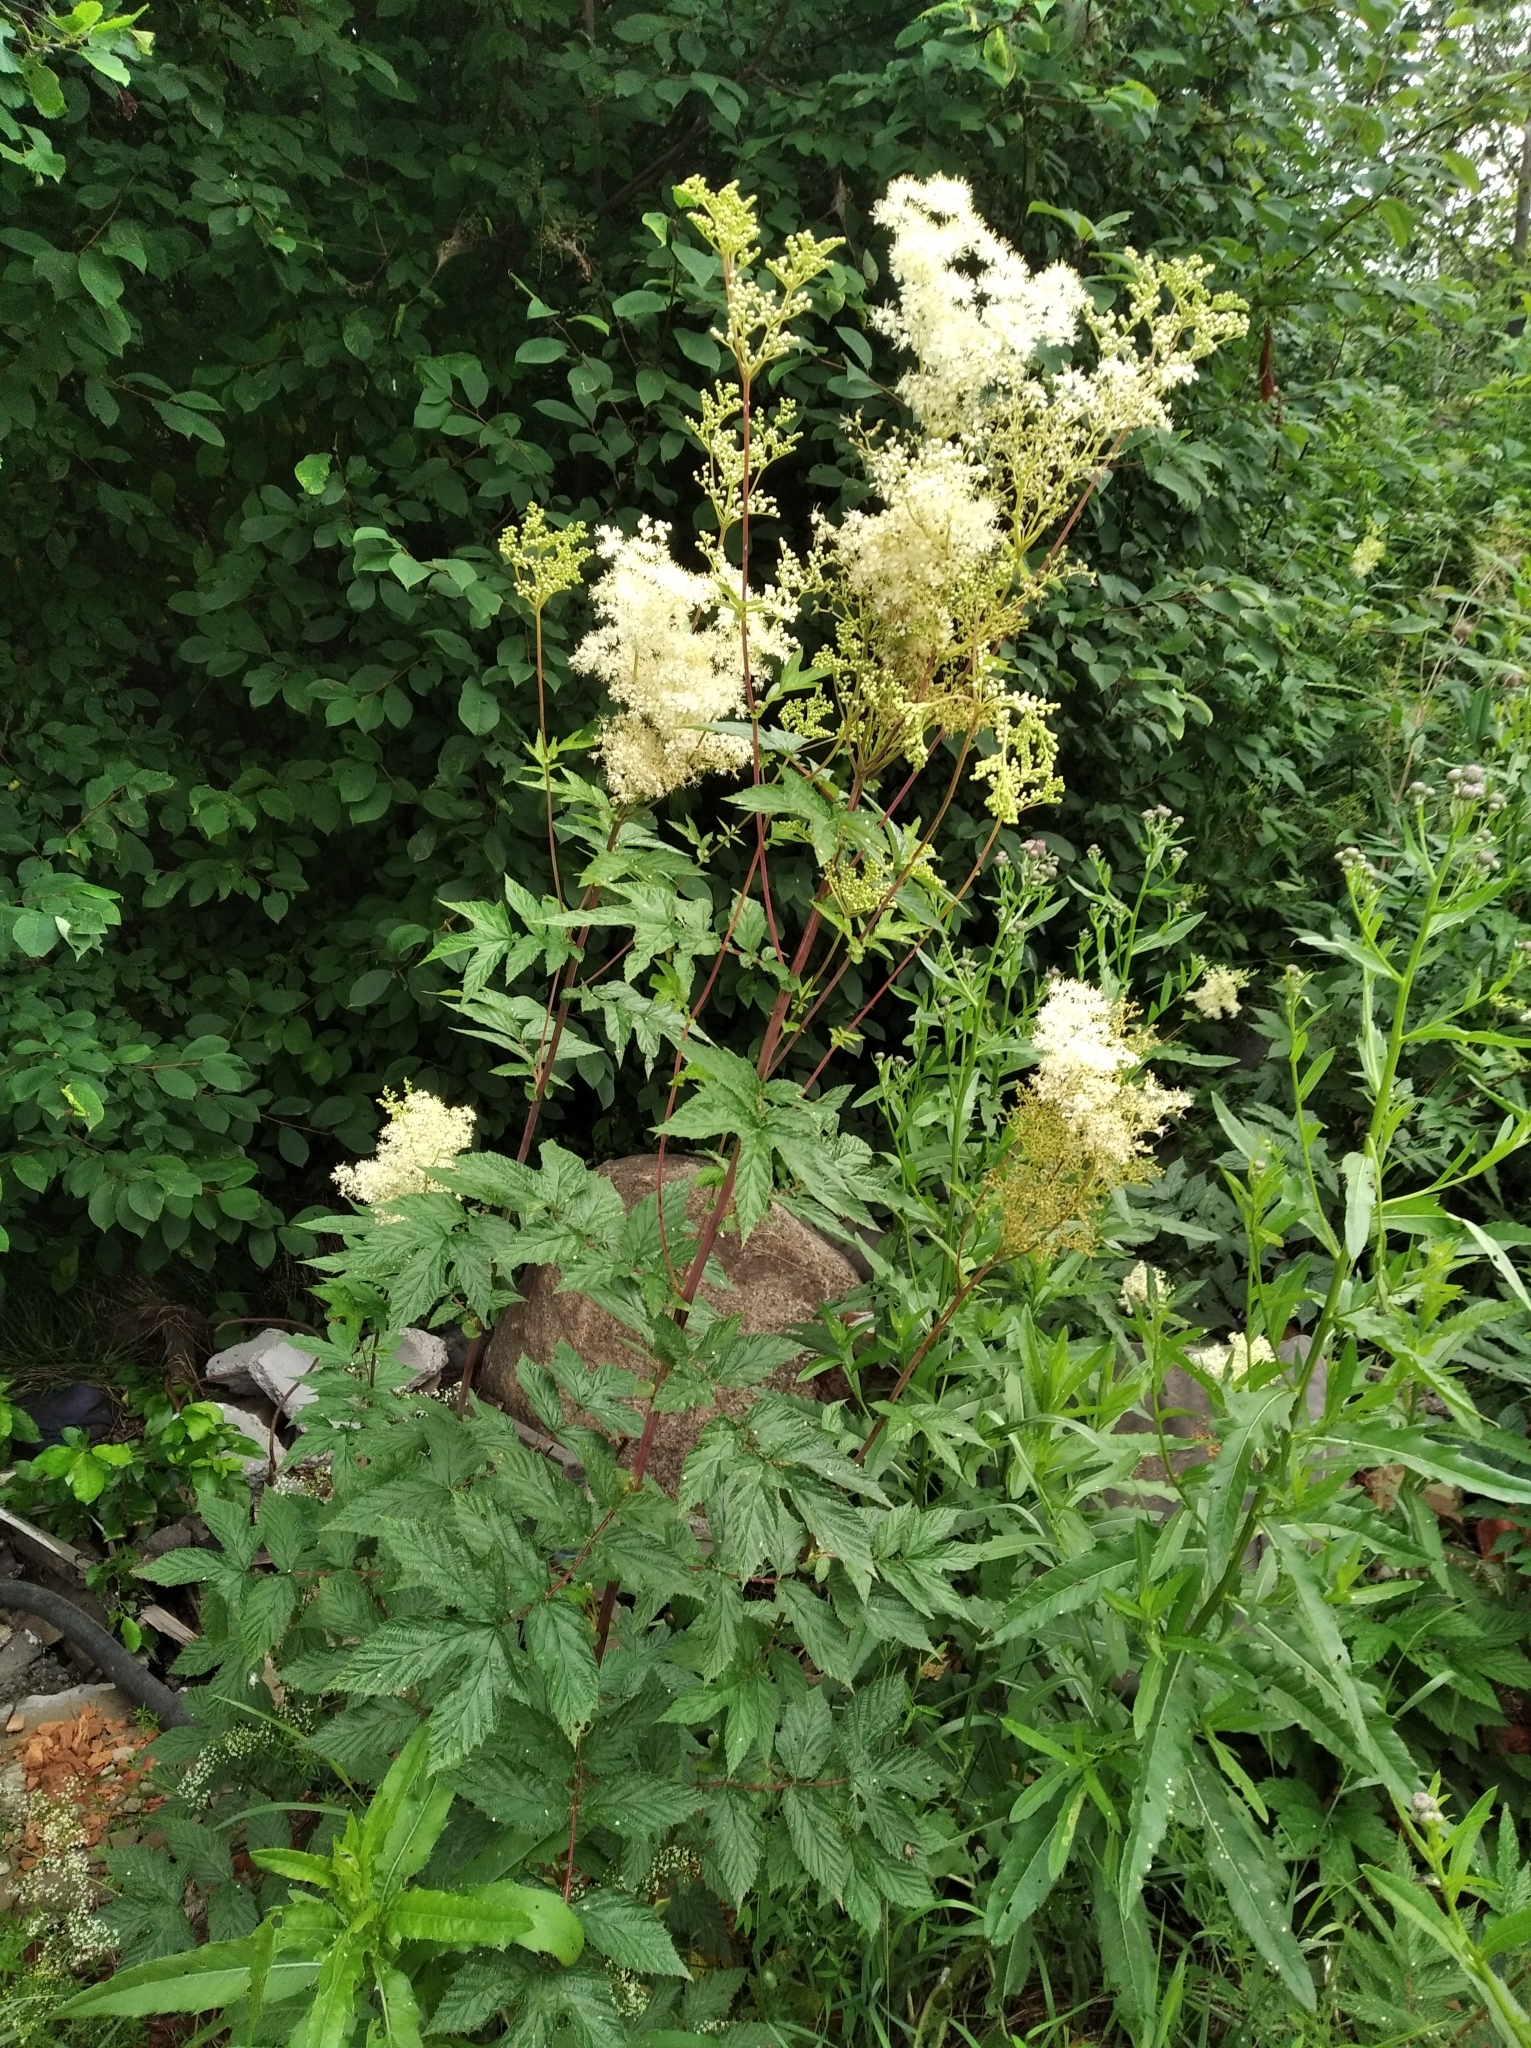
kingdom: Plantae
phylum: Tracheophyta
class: Magnoliopsida
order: Rosales
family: Rosaceae
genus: Filipendula
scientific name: Filipendula ulmaria
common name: Meadowsweet
